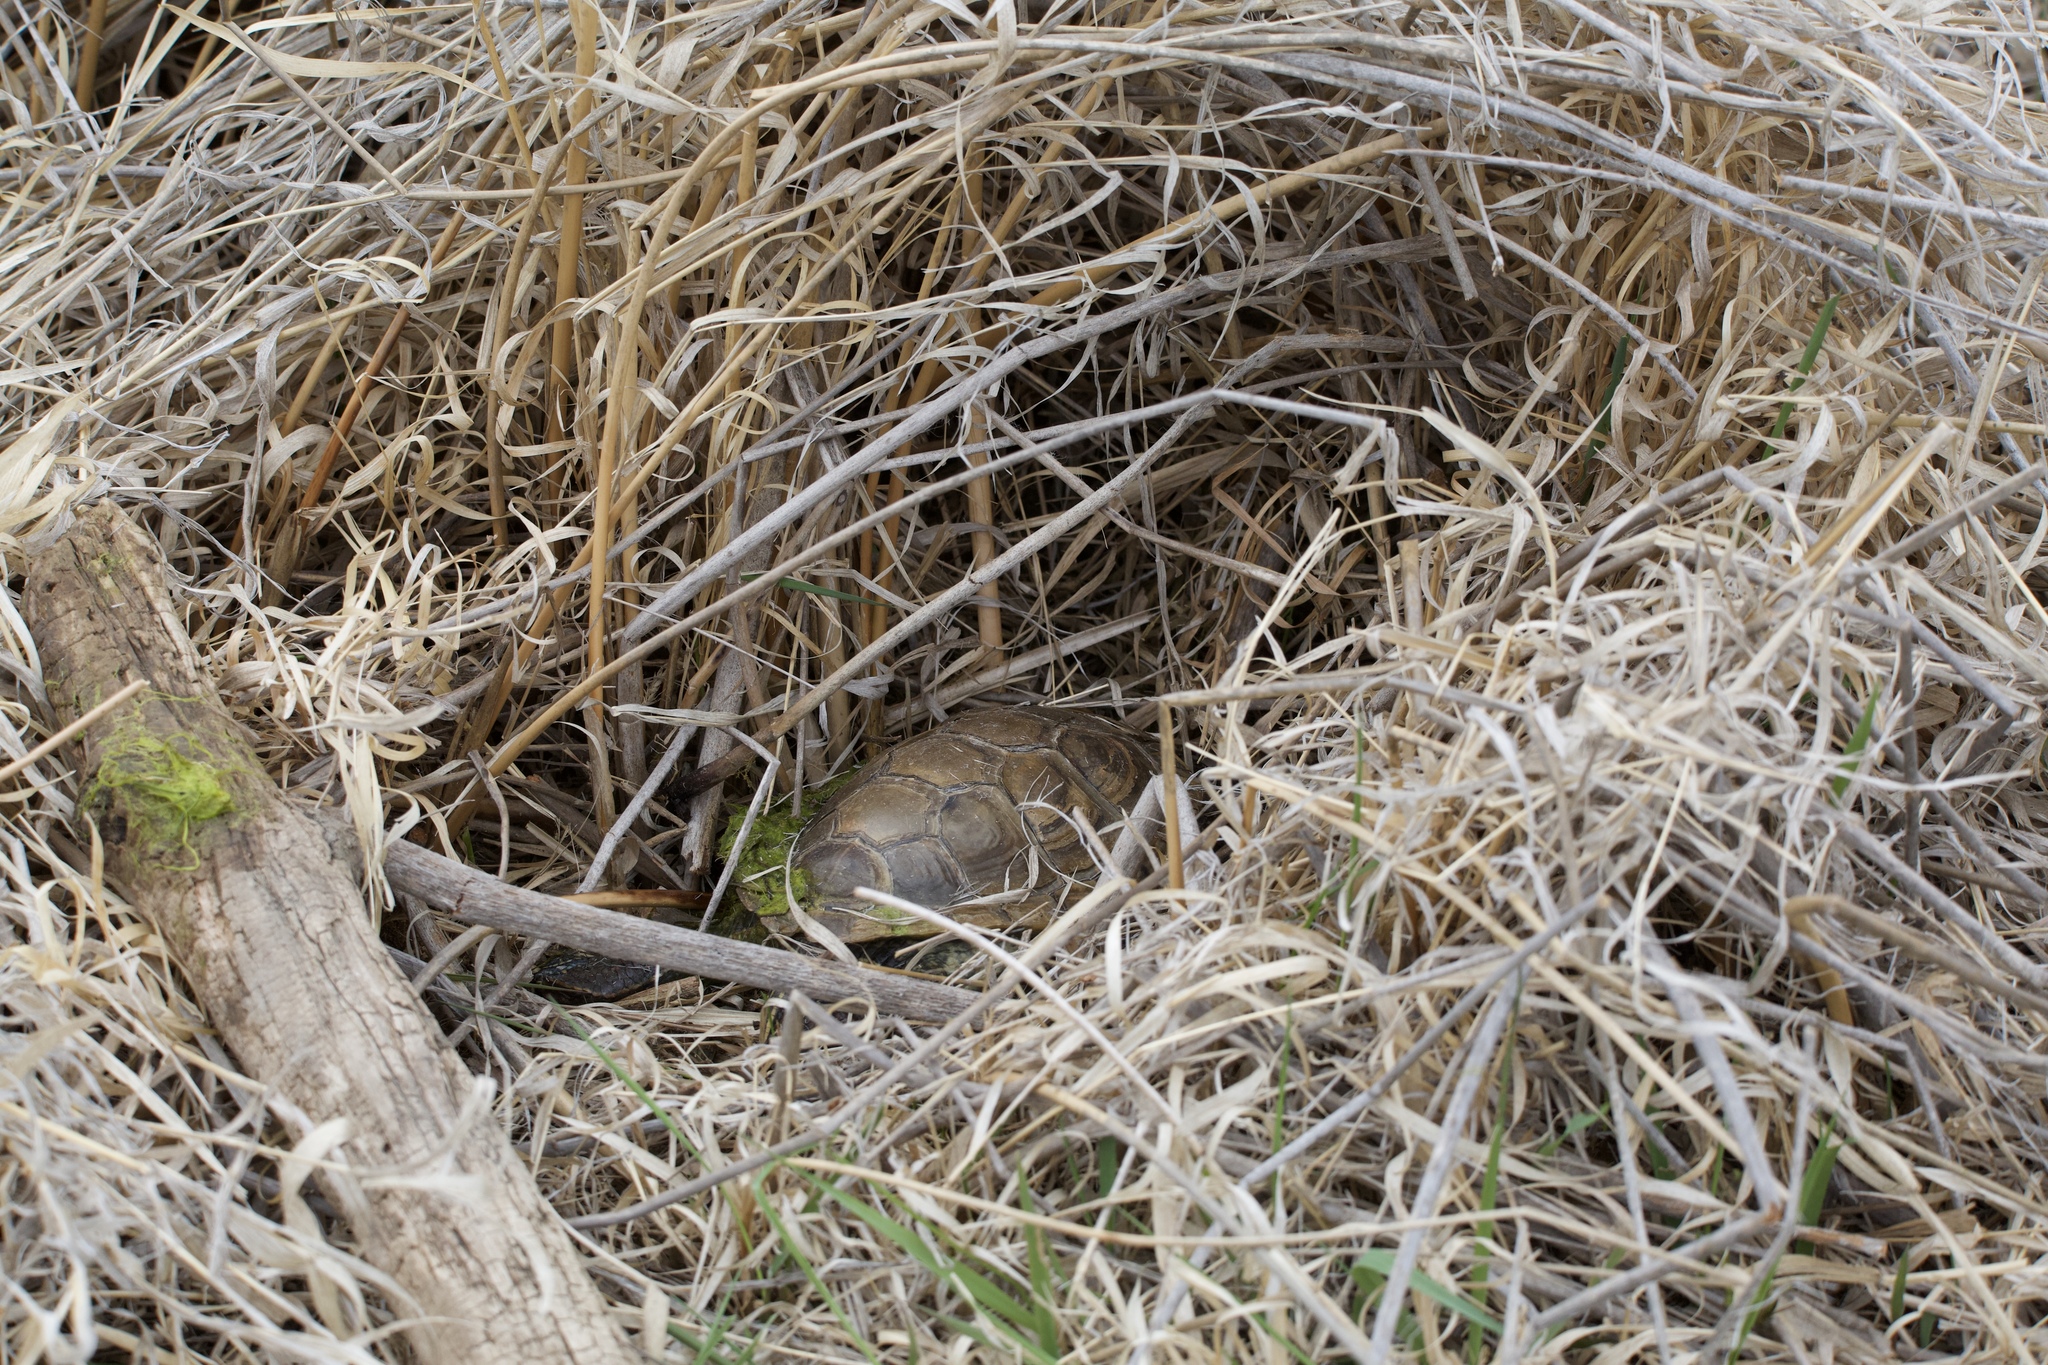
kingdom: Animalia
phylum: Chordata
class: Testudines
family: Emydidae
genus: Chrysemys
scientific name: Chrysemys picta
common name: Painted turtle
